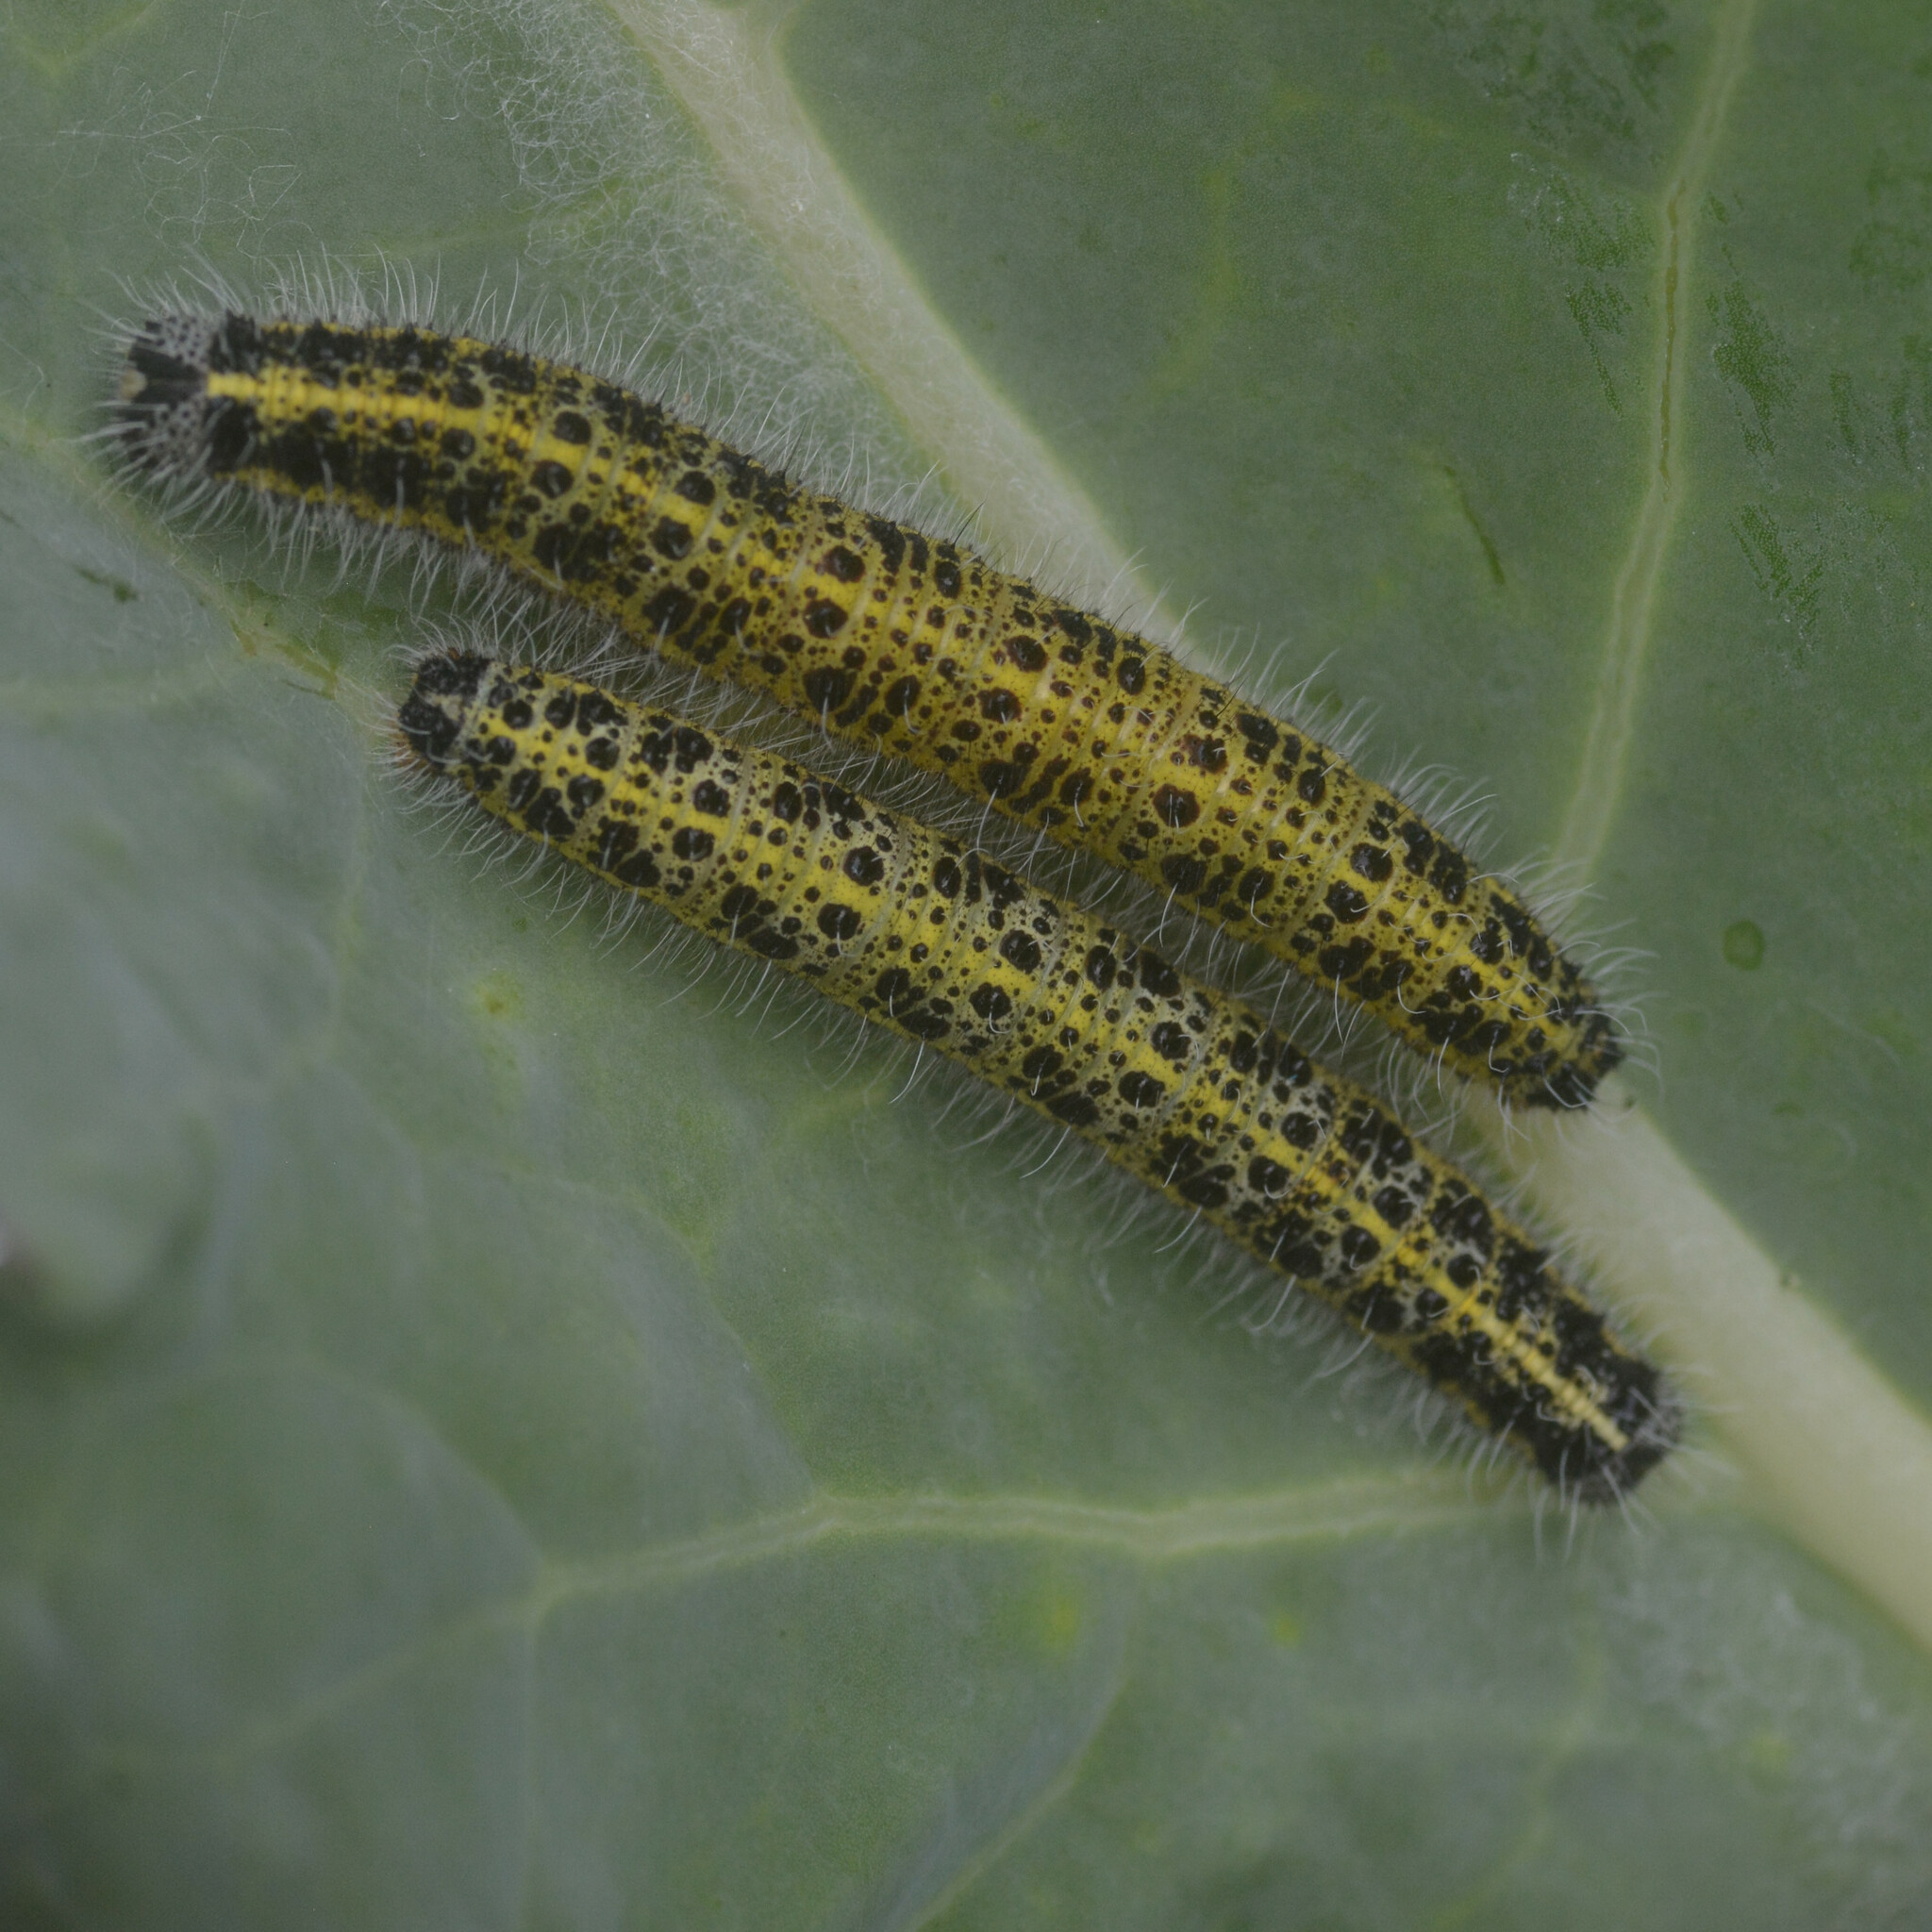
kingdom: Animalia
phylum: Arthropoda
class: Insecta
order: Lepidoptera
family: Pieridae
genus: Pieris
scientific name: Pieris brassicae
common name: Large white
